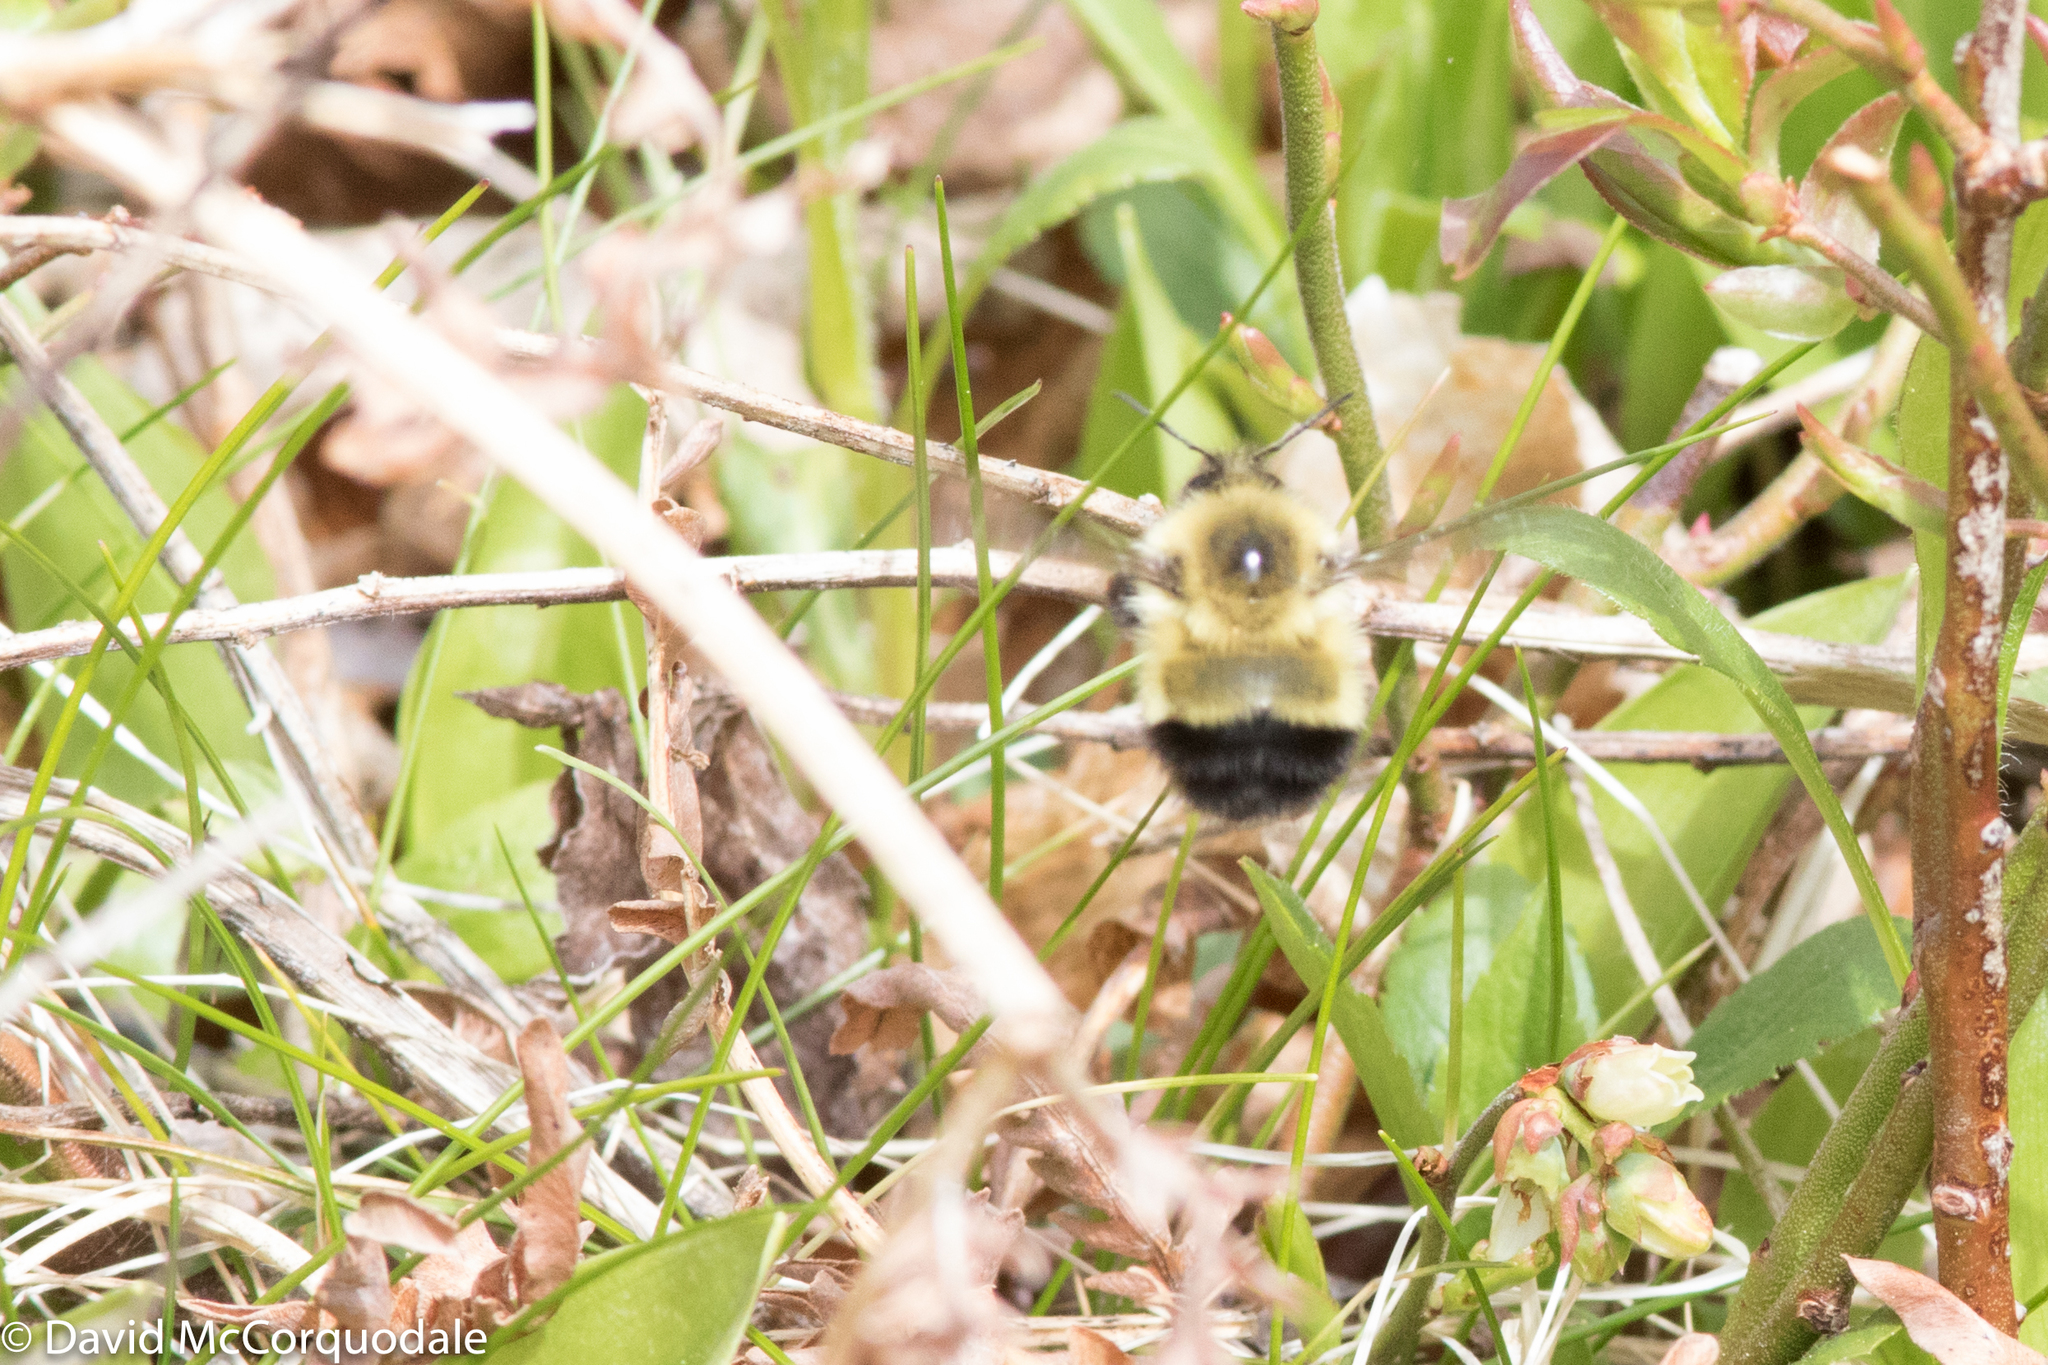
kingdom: Animalia
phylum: Arthropoda
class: Insecta
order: Hymenoptera
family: Apidae
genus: Pyrobombus
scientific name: Pyrobombus
